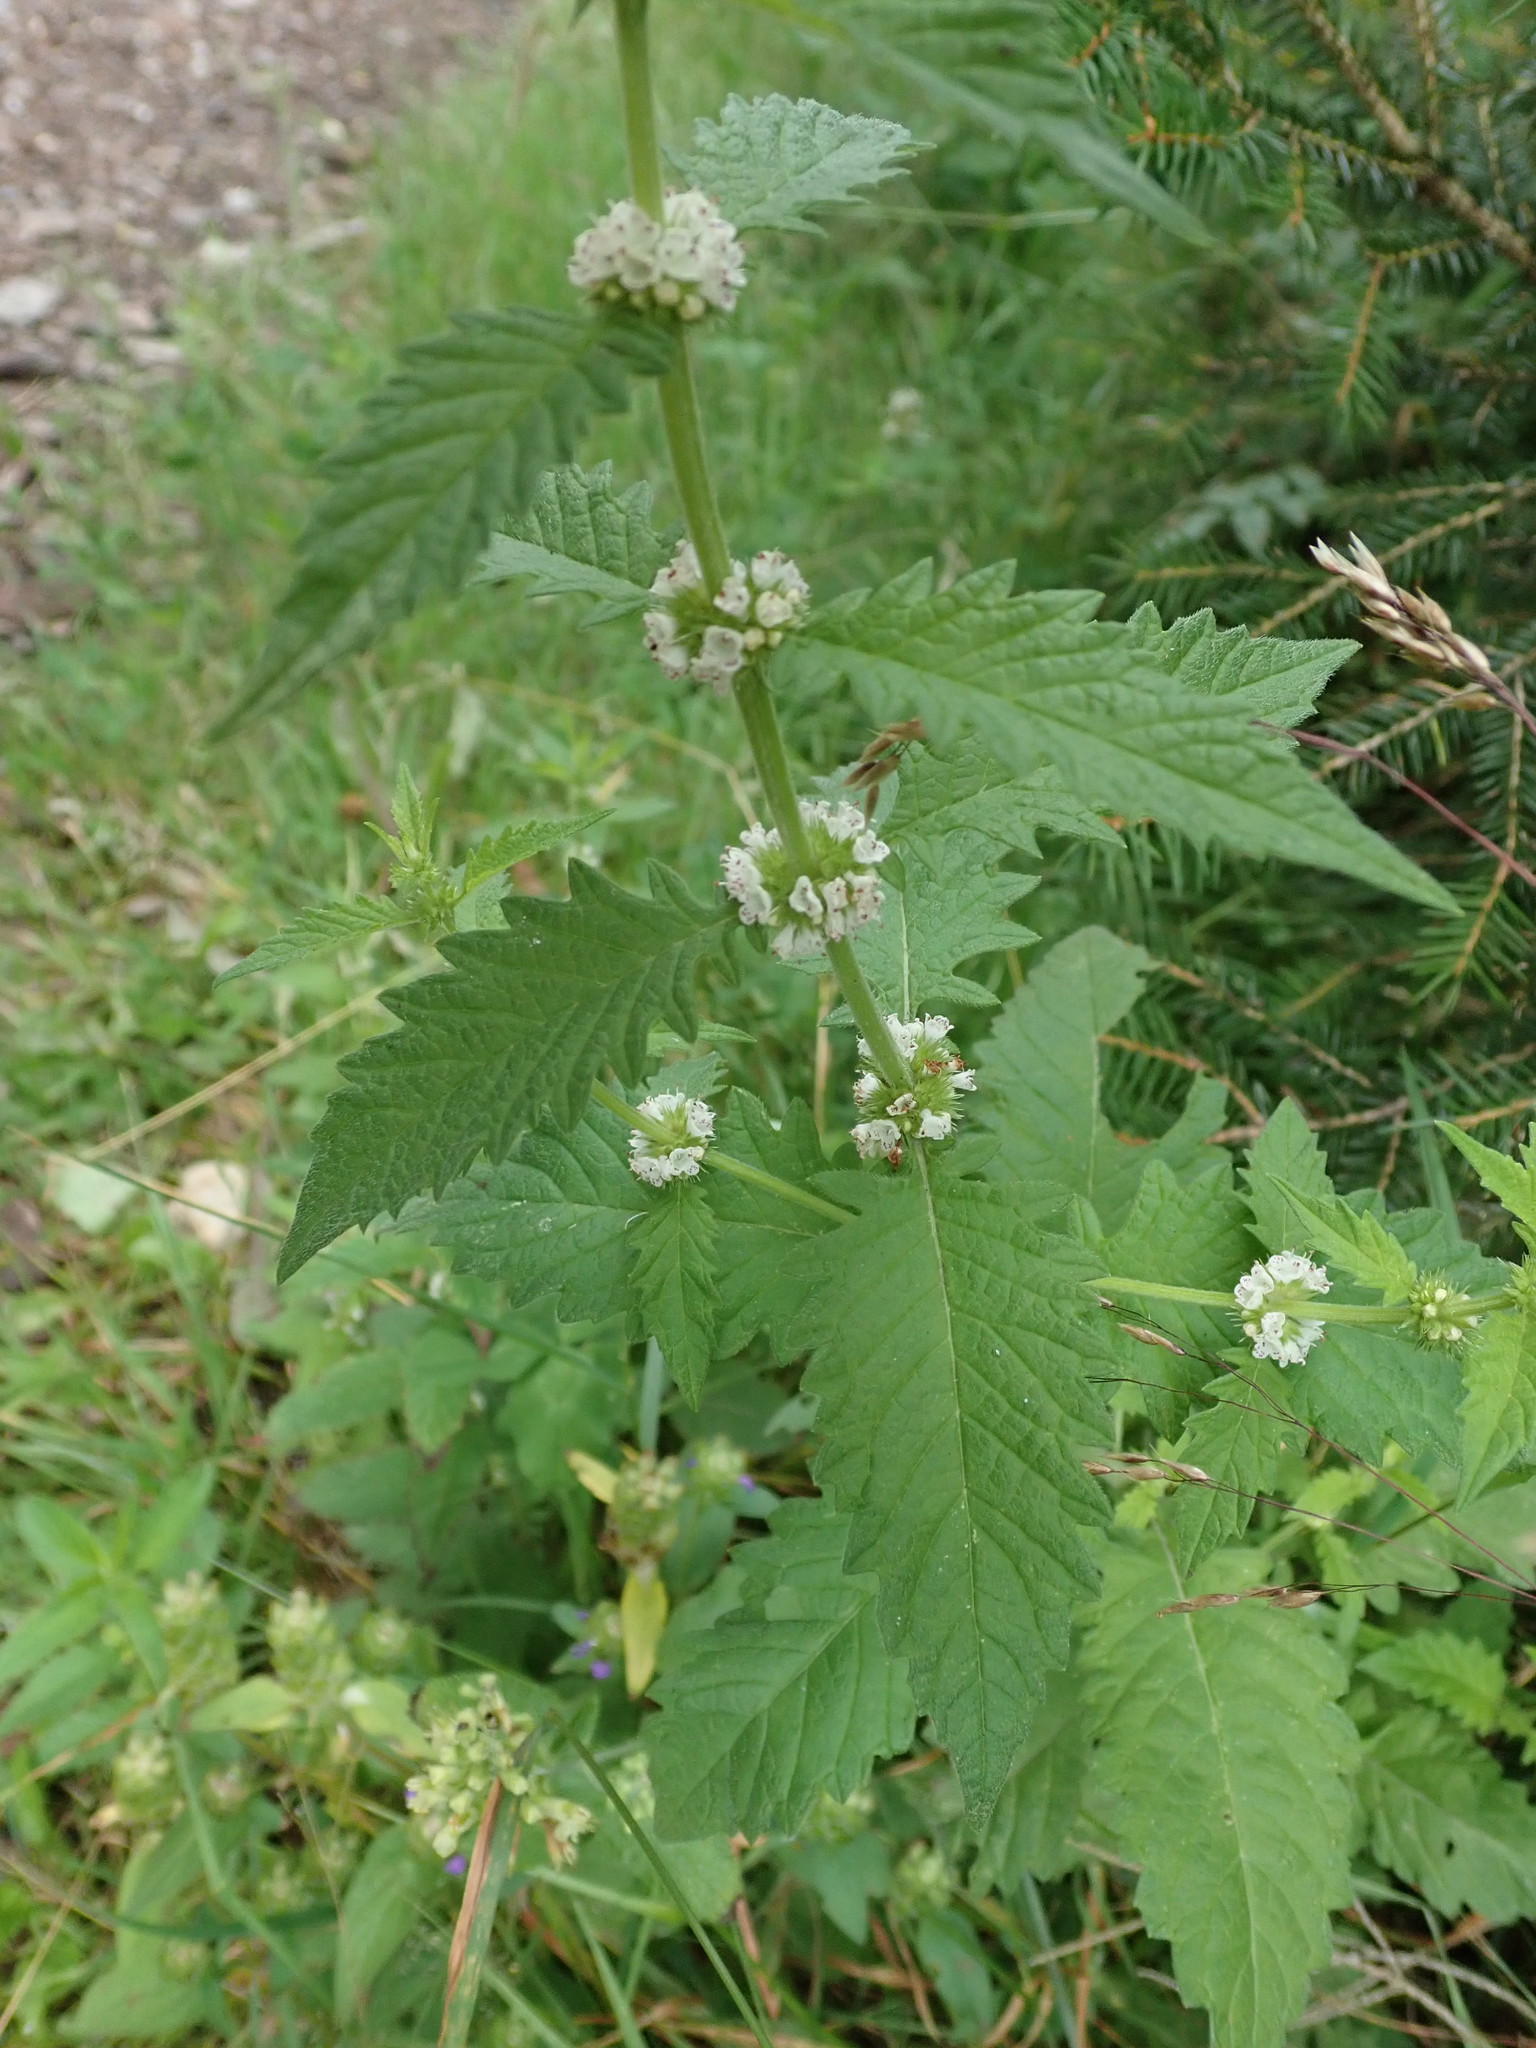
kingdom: Plantae
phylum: Tracheophyta
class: Magnoliopsida
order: Lamiales
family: Lamiaceae
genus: Lycopus
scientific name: Lycopus europaeus
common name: European bugleweed
